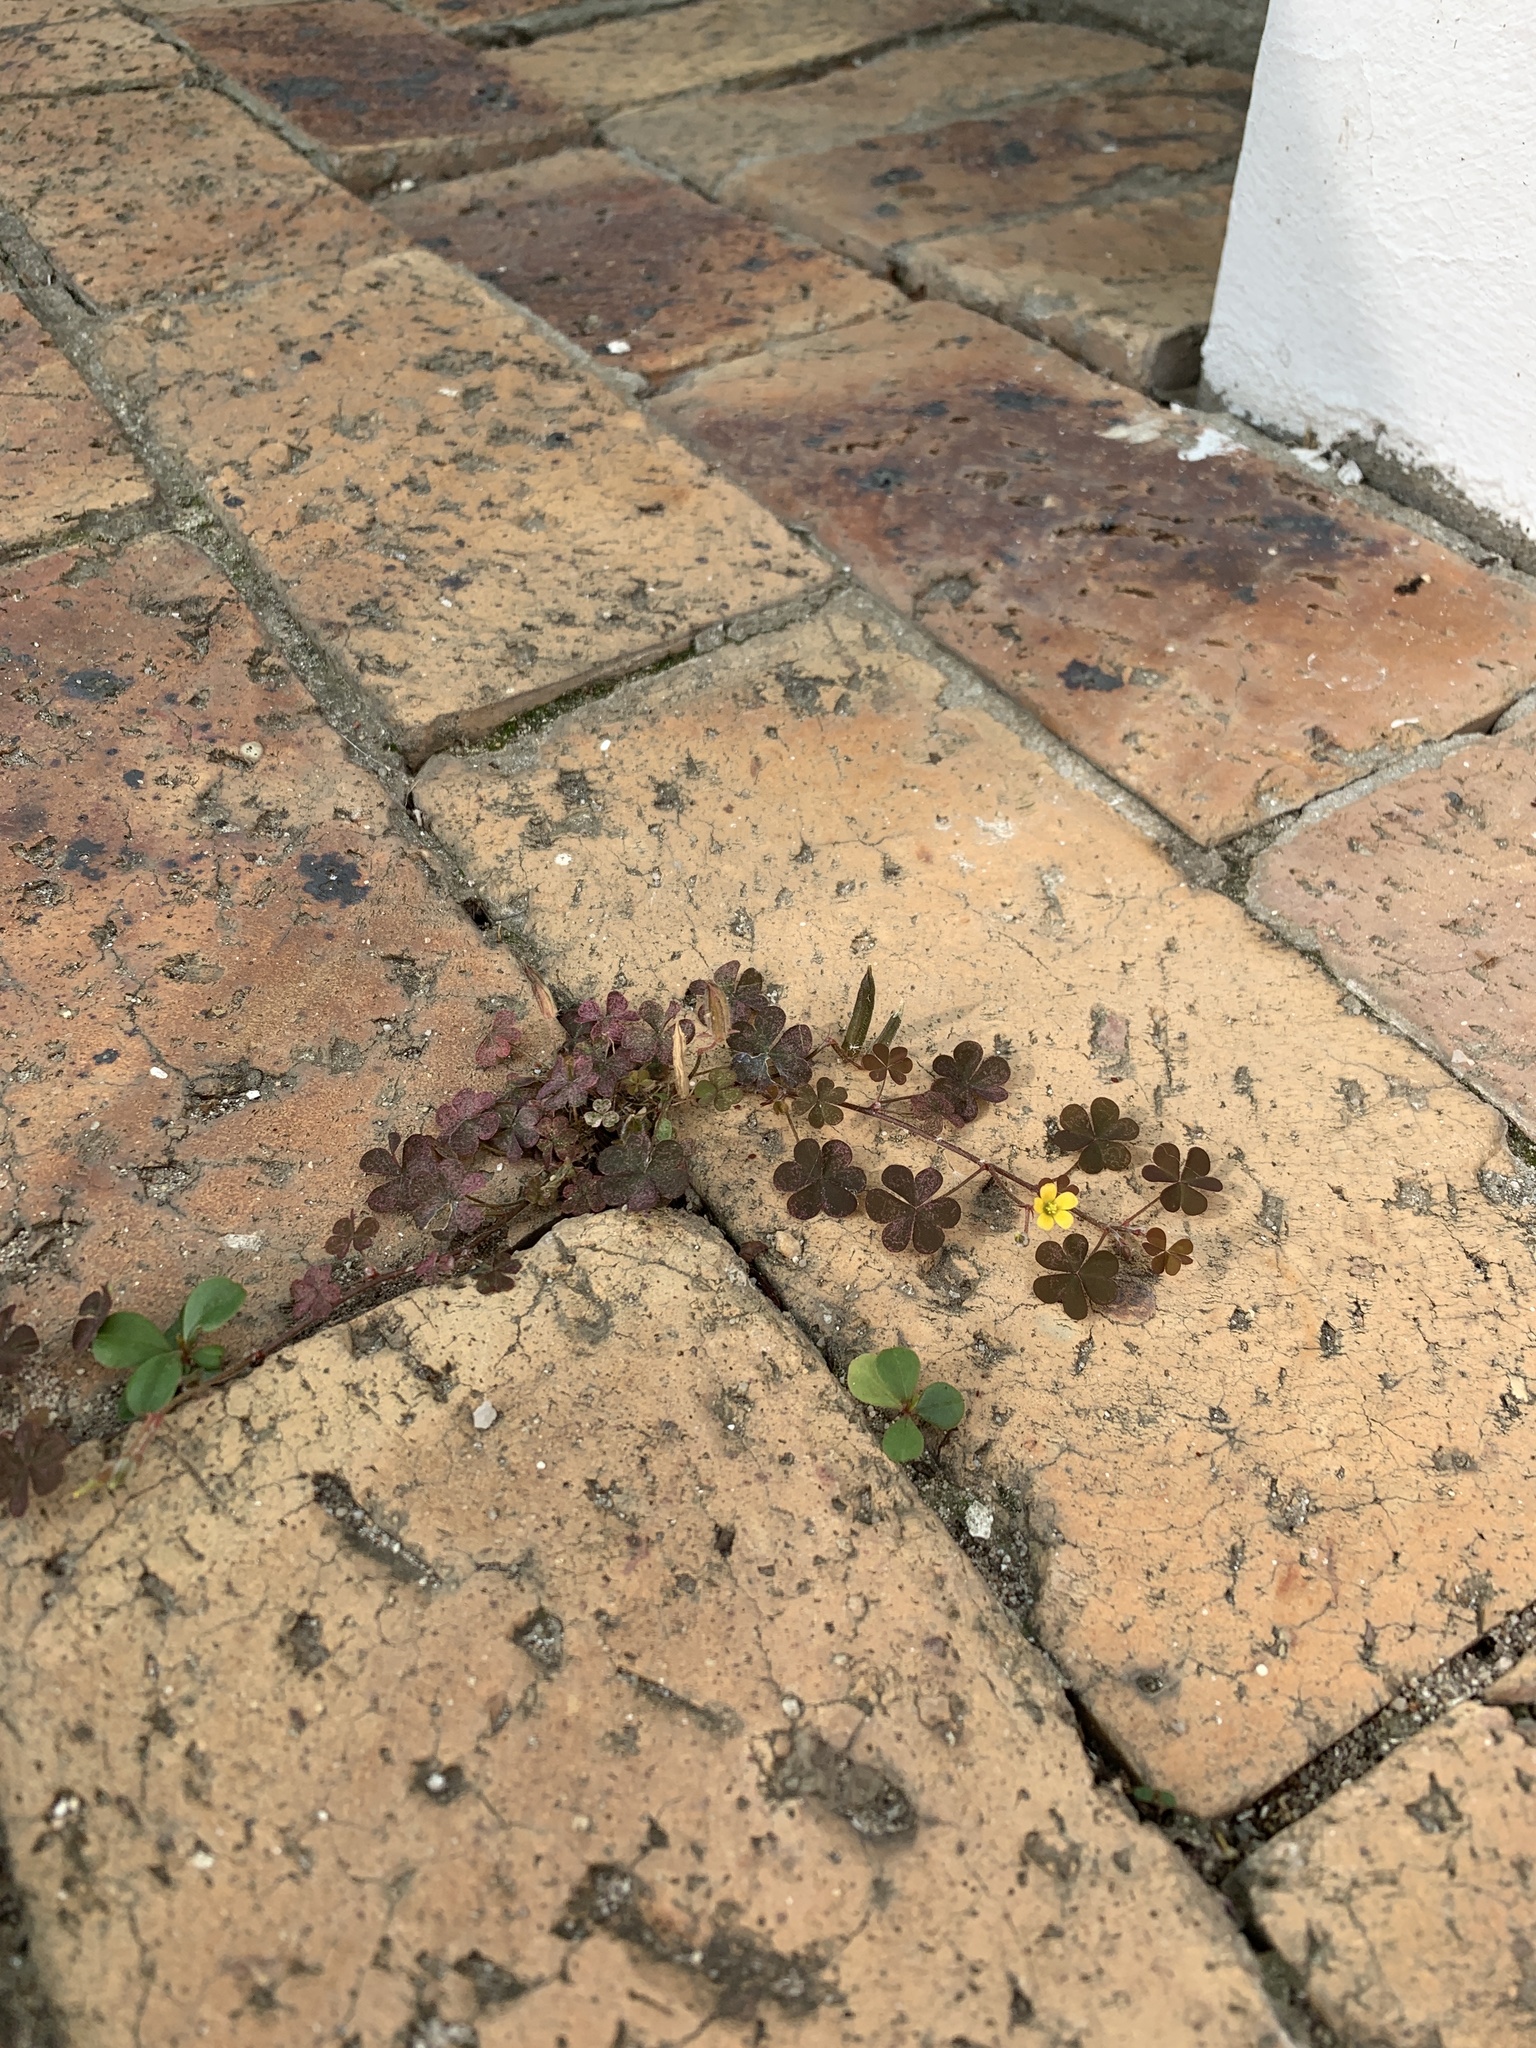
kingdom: Plantae
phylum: Tracheophyta
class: Magnoliopsida
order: Oxalidales
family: Oxalidaceae
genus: Oxalis
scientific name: Oxalis corniculata
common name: Procumbent yellow-sorrel
